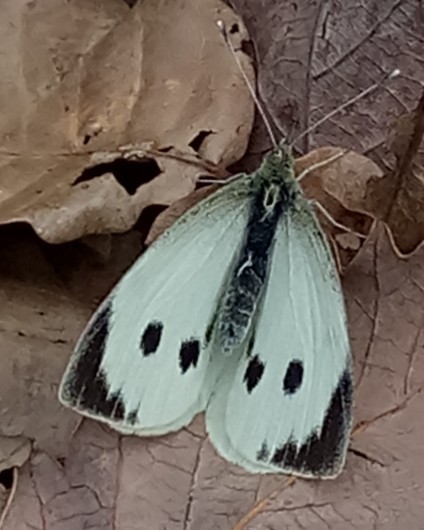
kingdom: Animalia
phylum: Arthropoda
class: Insecta
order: Lepidoptera
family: Pieridae
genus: Pieris
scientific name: Pieris brassicae
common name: Large white
